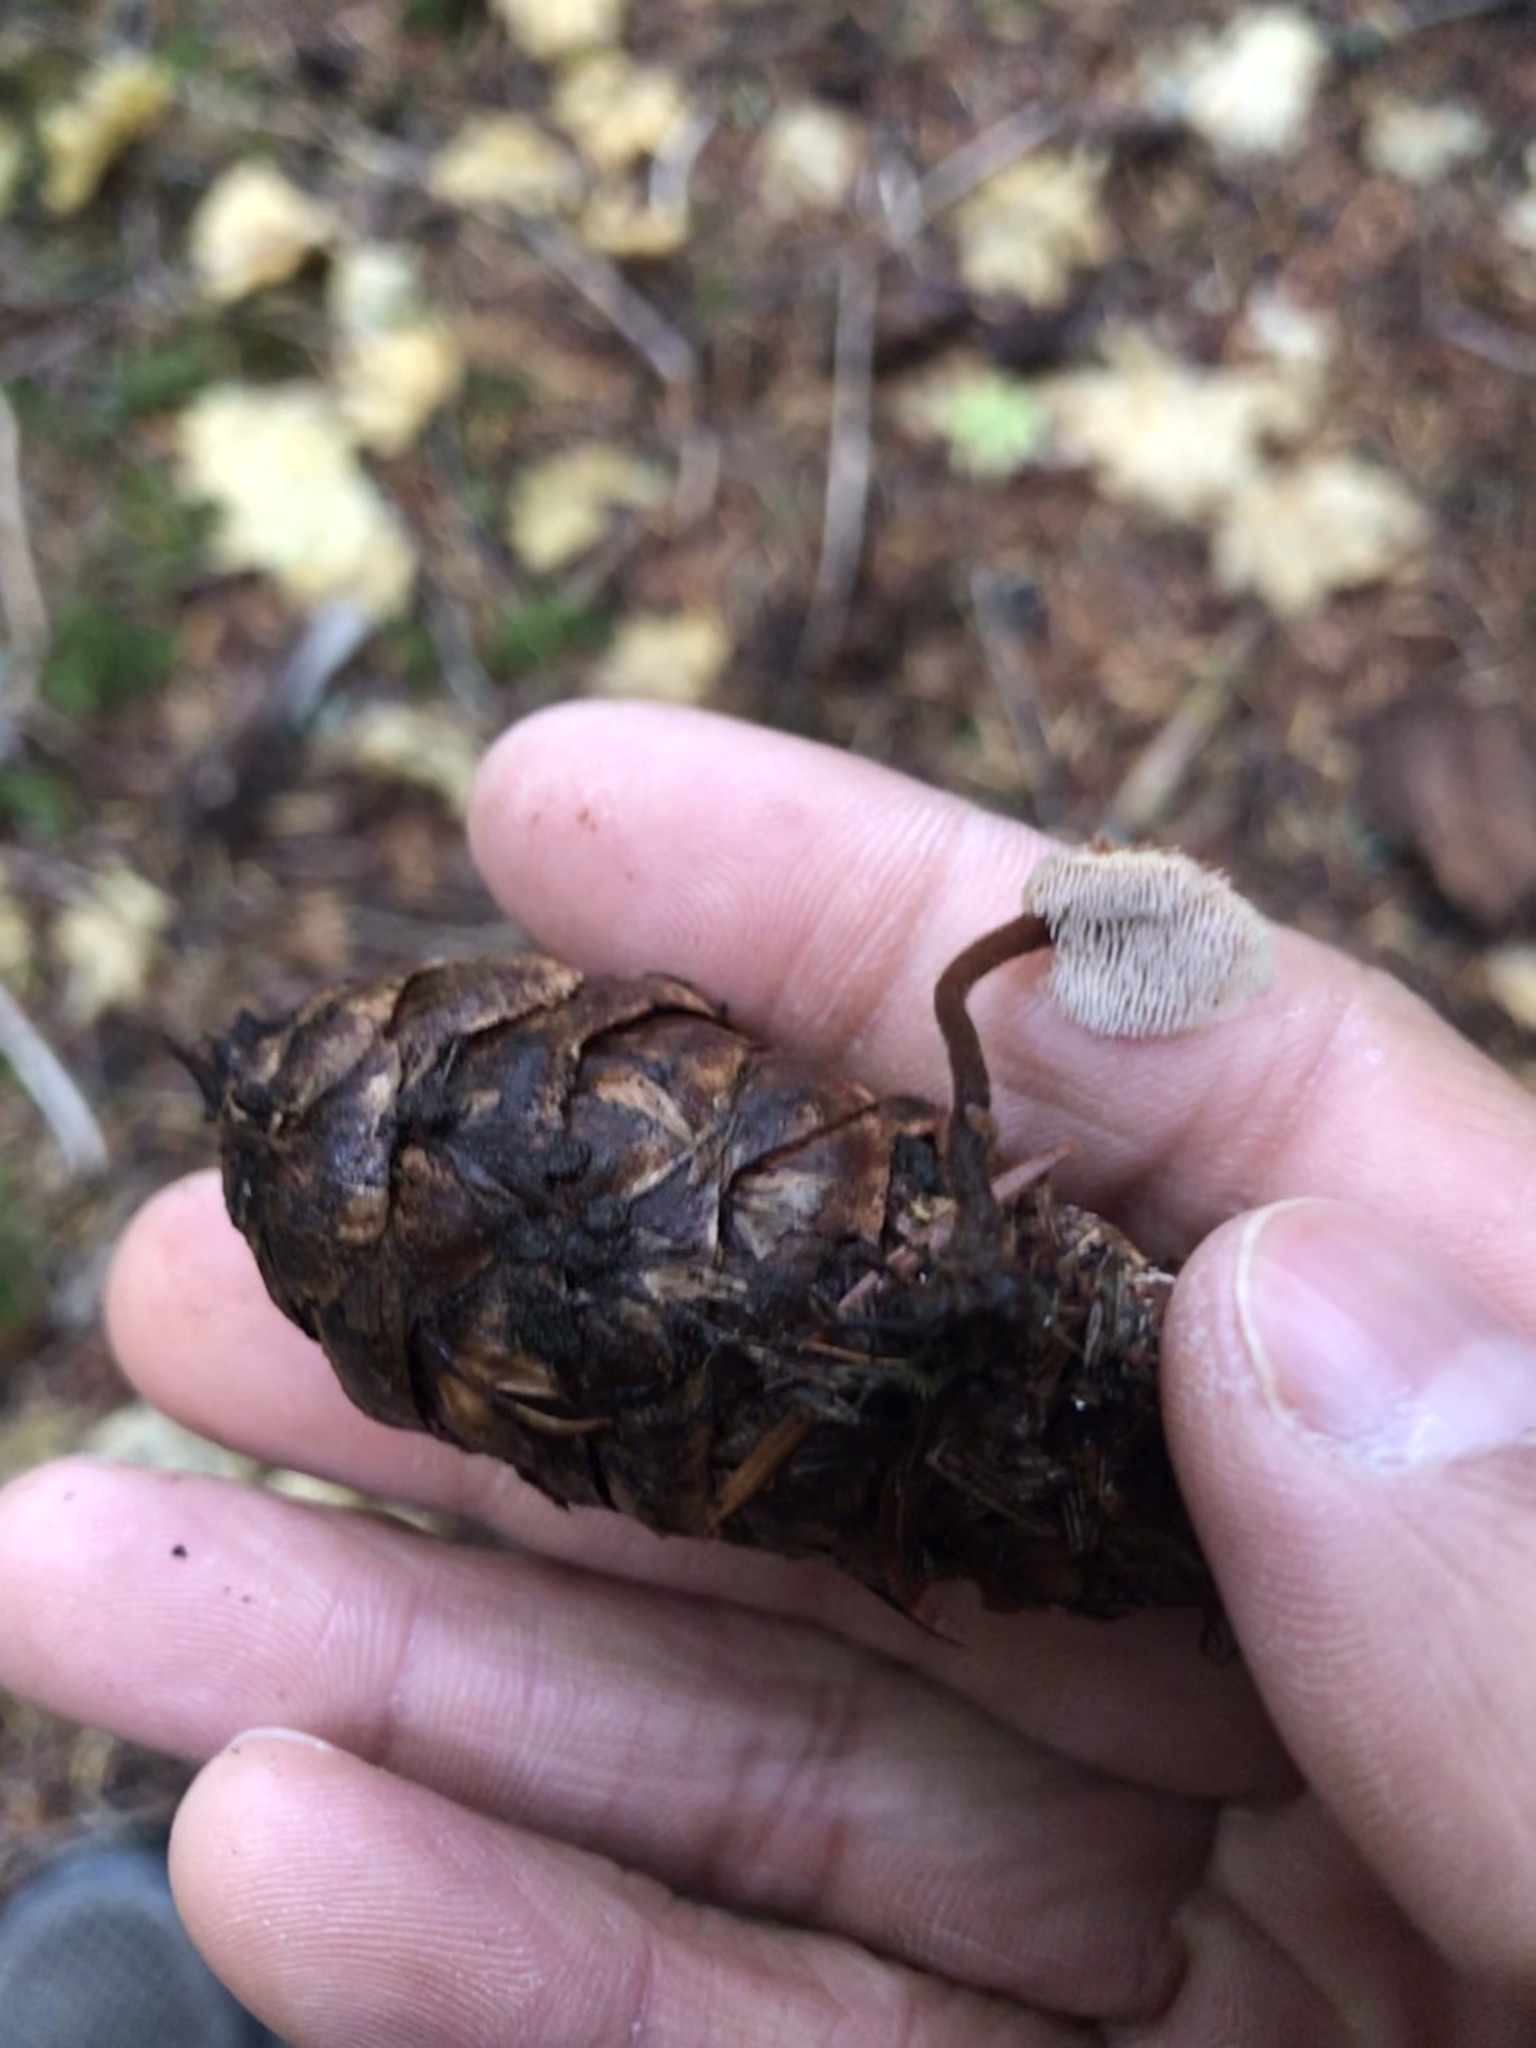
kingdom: Fungi
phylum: Basidiomycota
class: Agaricomycetes
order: Russulales
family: Auriscalpiaceae
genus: Auriscalpium
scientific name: Auriscalpium vulgare
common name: Earpick fungus
